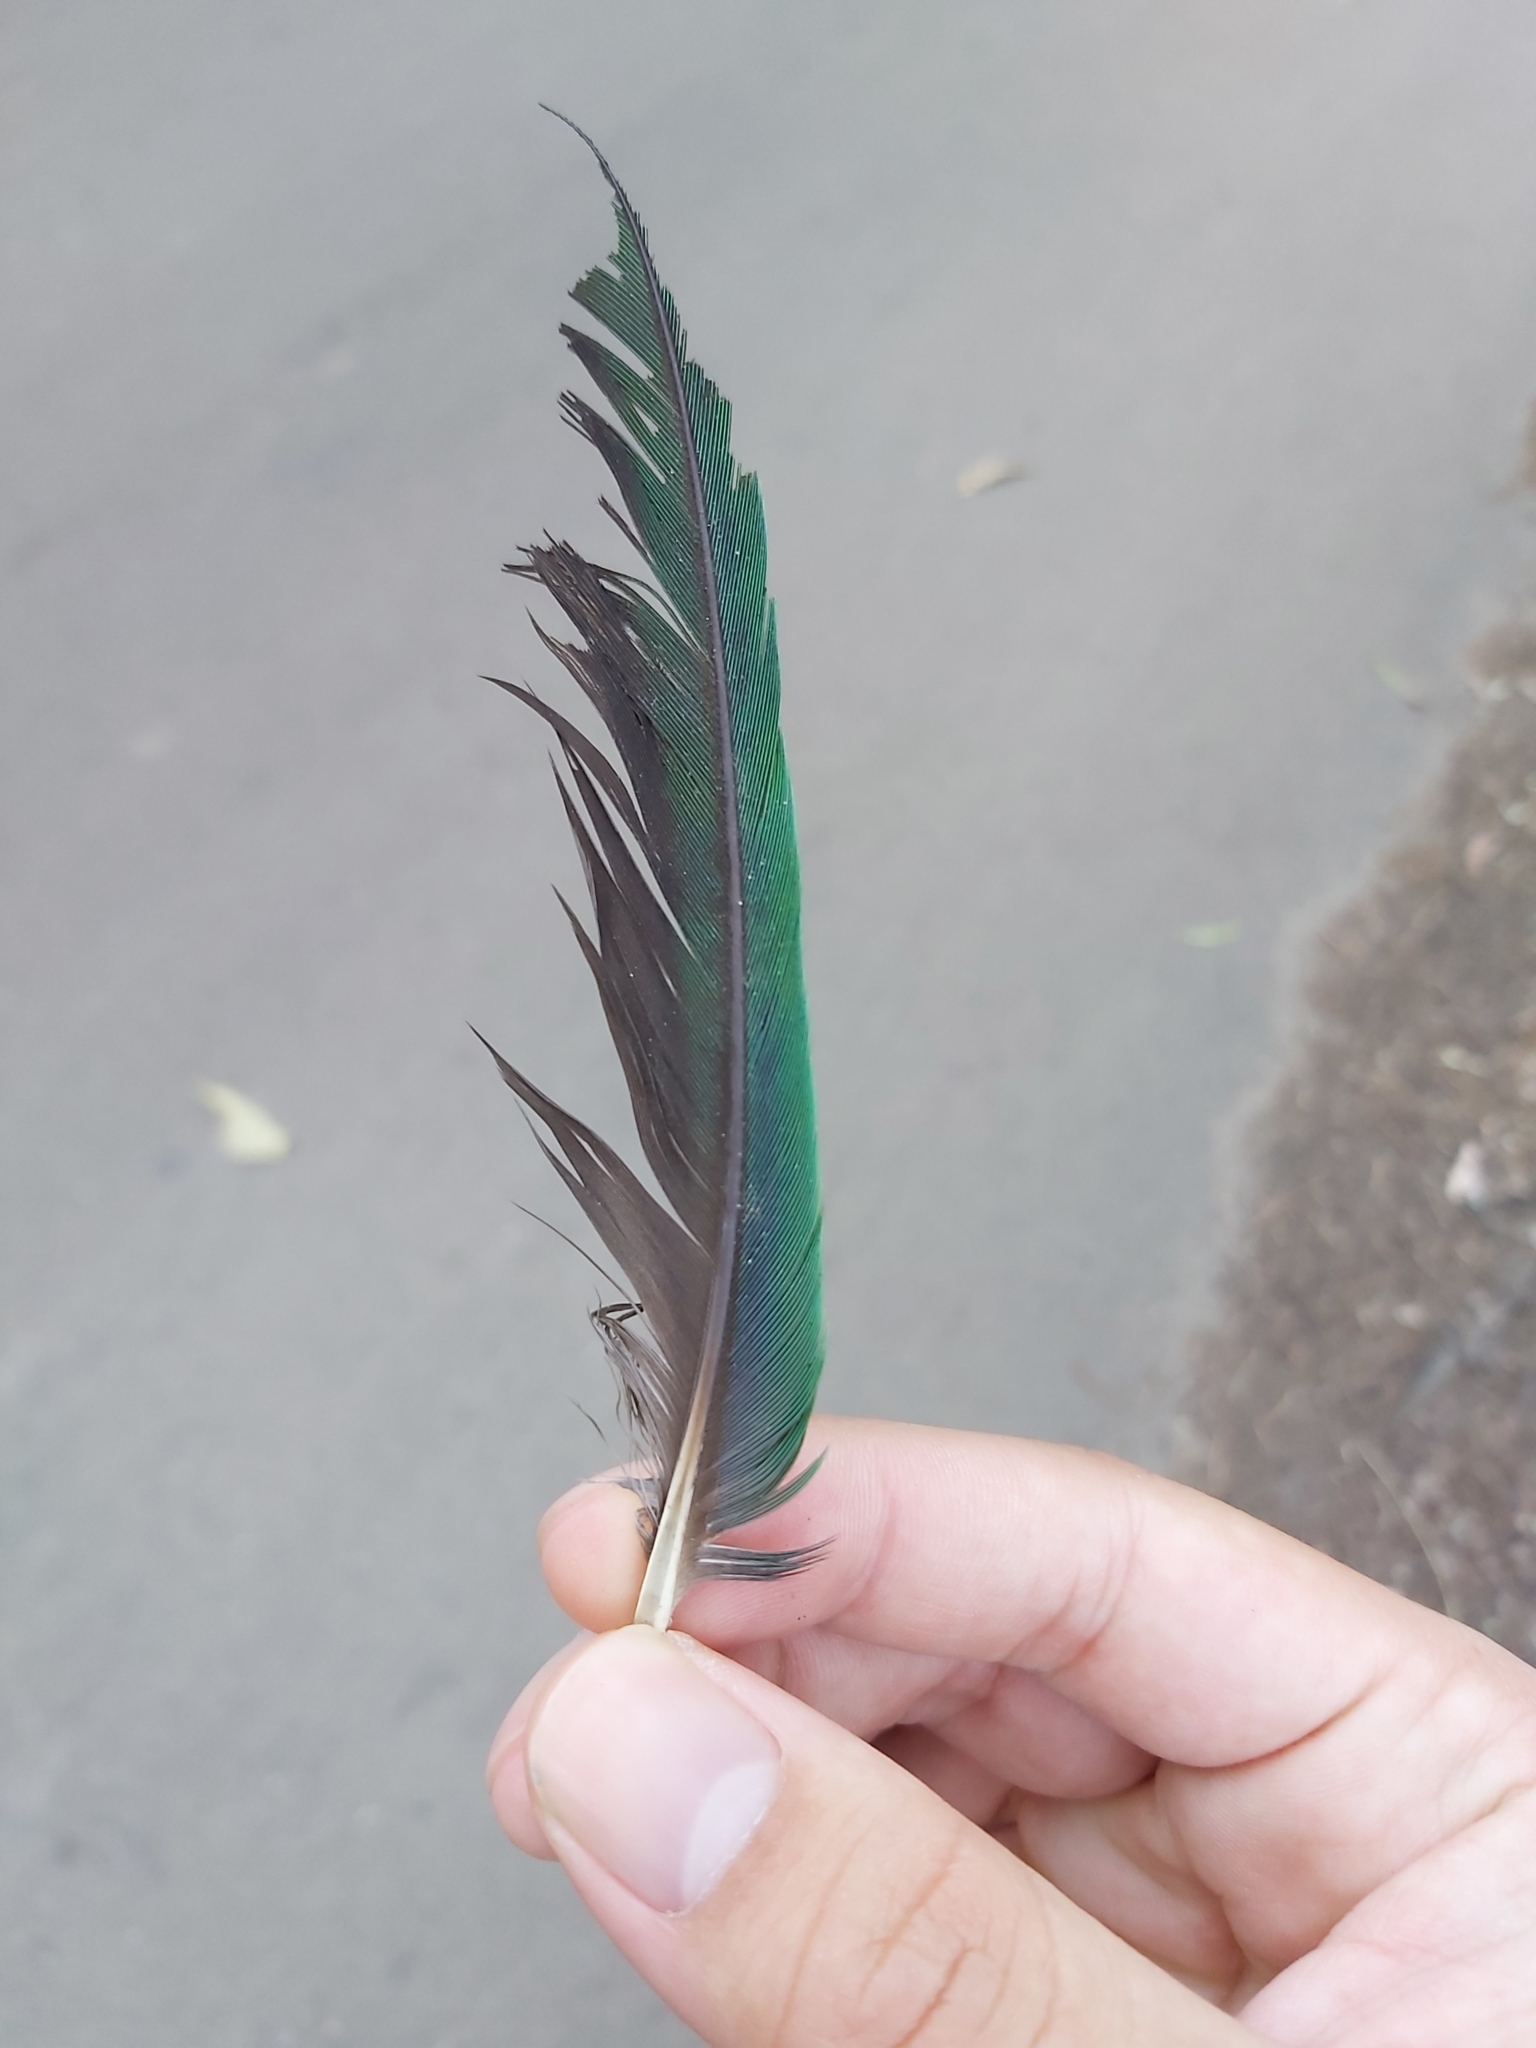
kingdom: Animalia
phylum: Chordata
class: Aves
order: Psittaciformes
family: Psittacidae
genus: Alisterus
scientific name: Alisterus scapularis
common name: Australian king parrot
